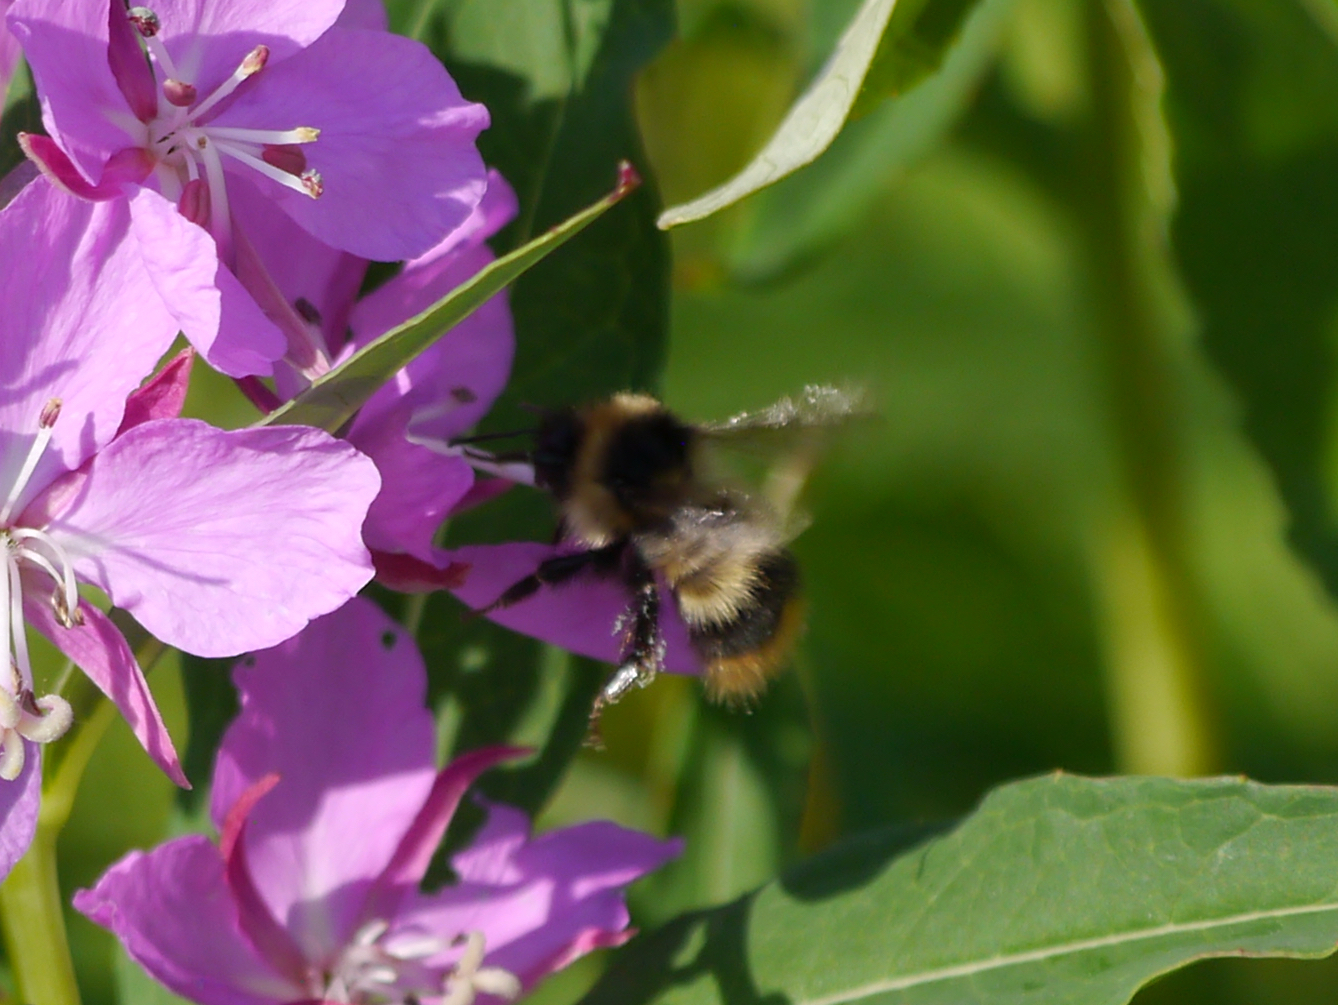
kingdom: Animalia
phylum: Arthropoda
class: Insecta
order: Hymenoptera
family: Apidae
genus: Bombus
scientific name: Bombus frigidus
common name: Frigid bumble bee
